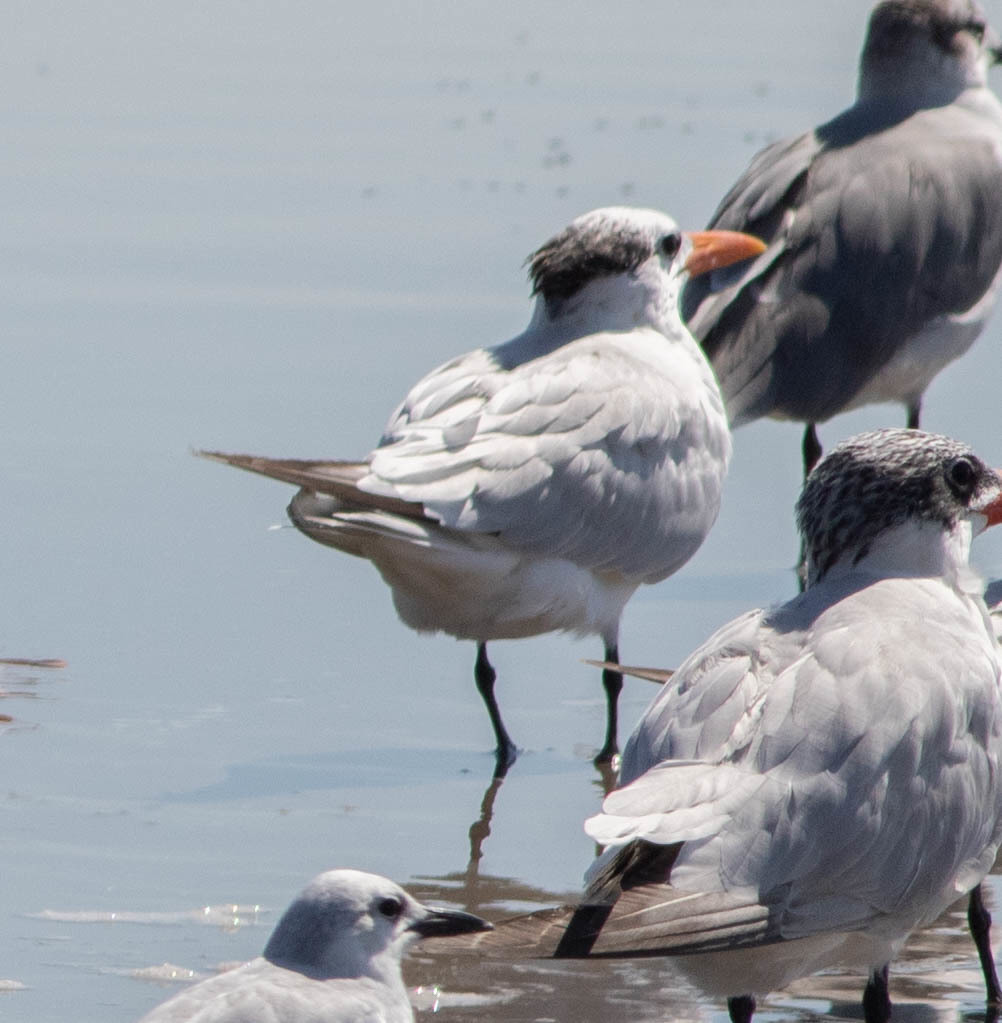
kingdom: Animalia
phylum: Chordata
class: Aves
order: Charadriiformes
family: Laridae
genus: Thalasseus
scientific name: Thalasseus maximus
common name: Royal tern
